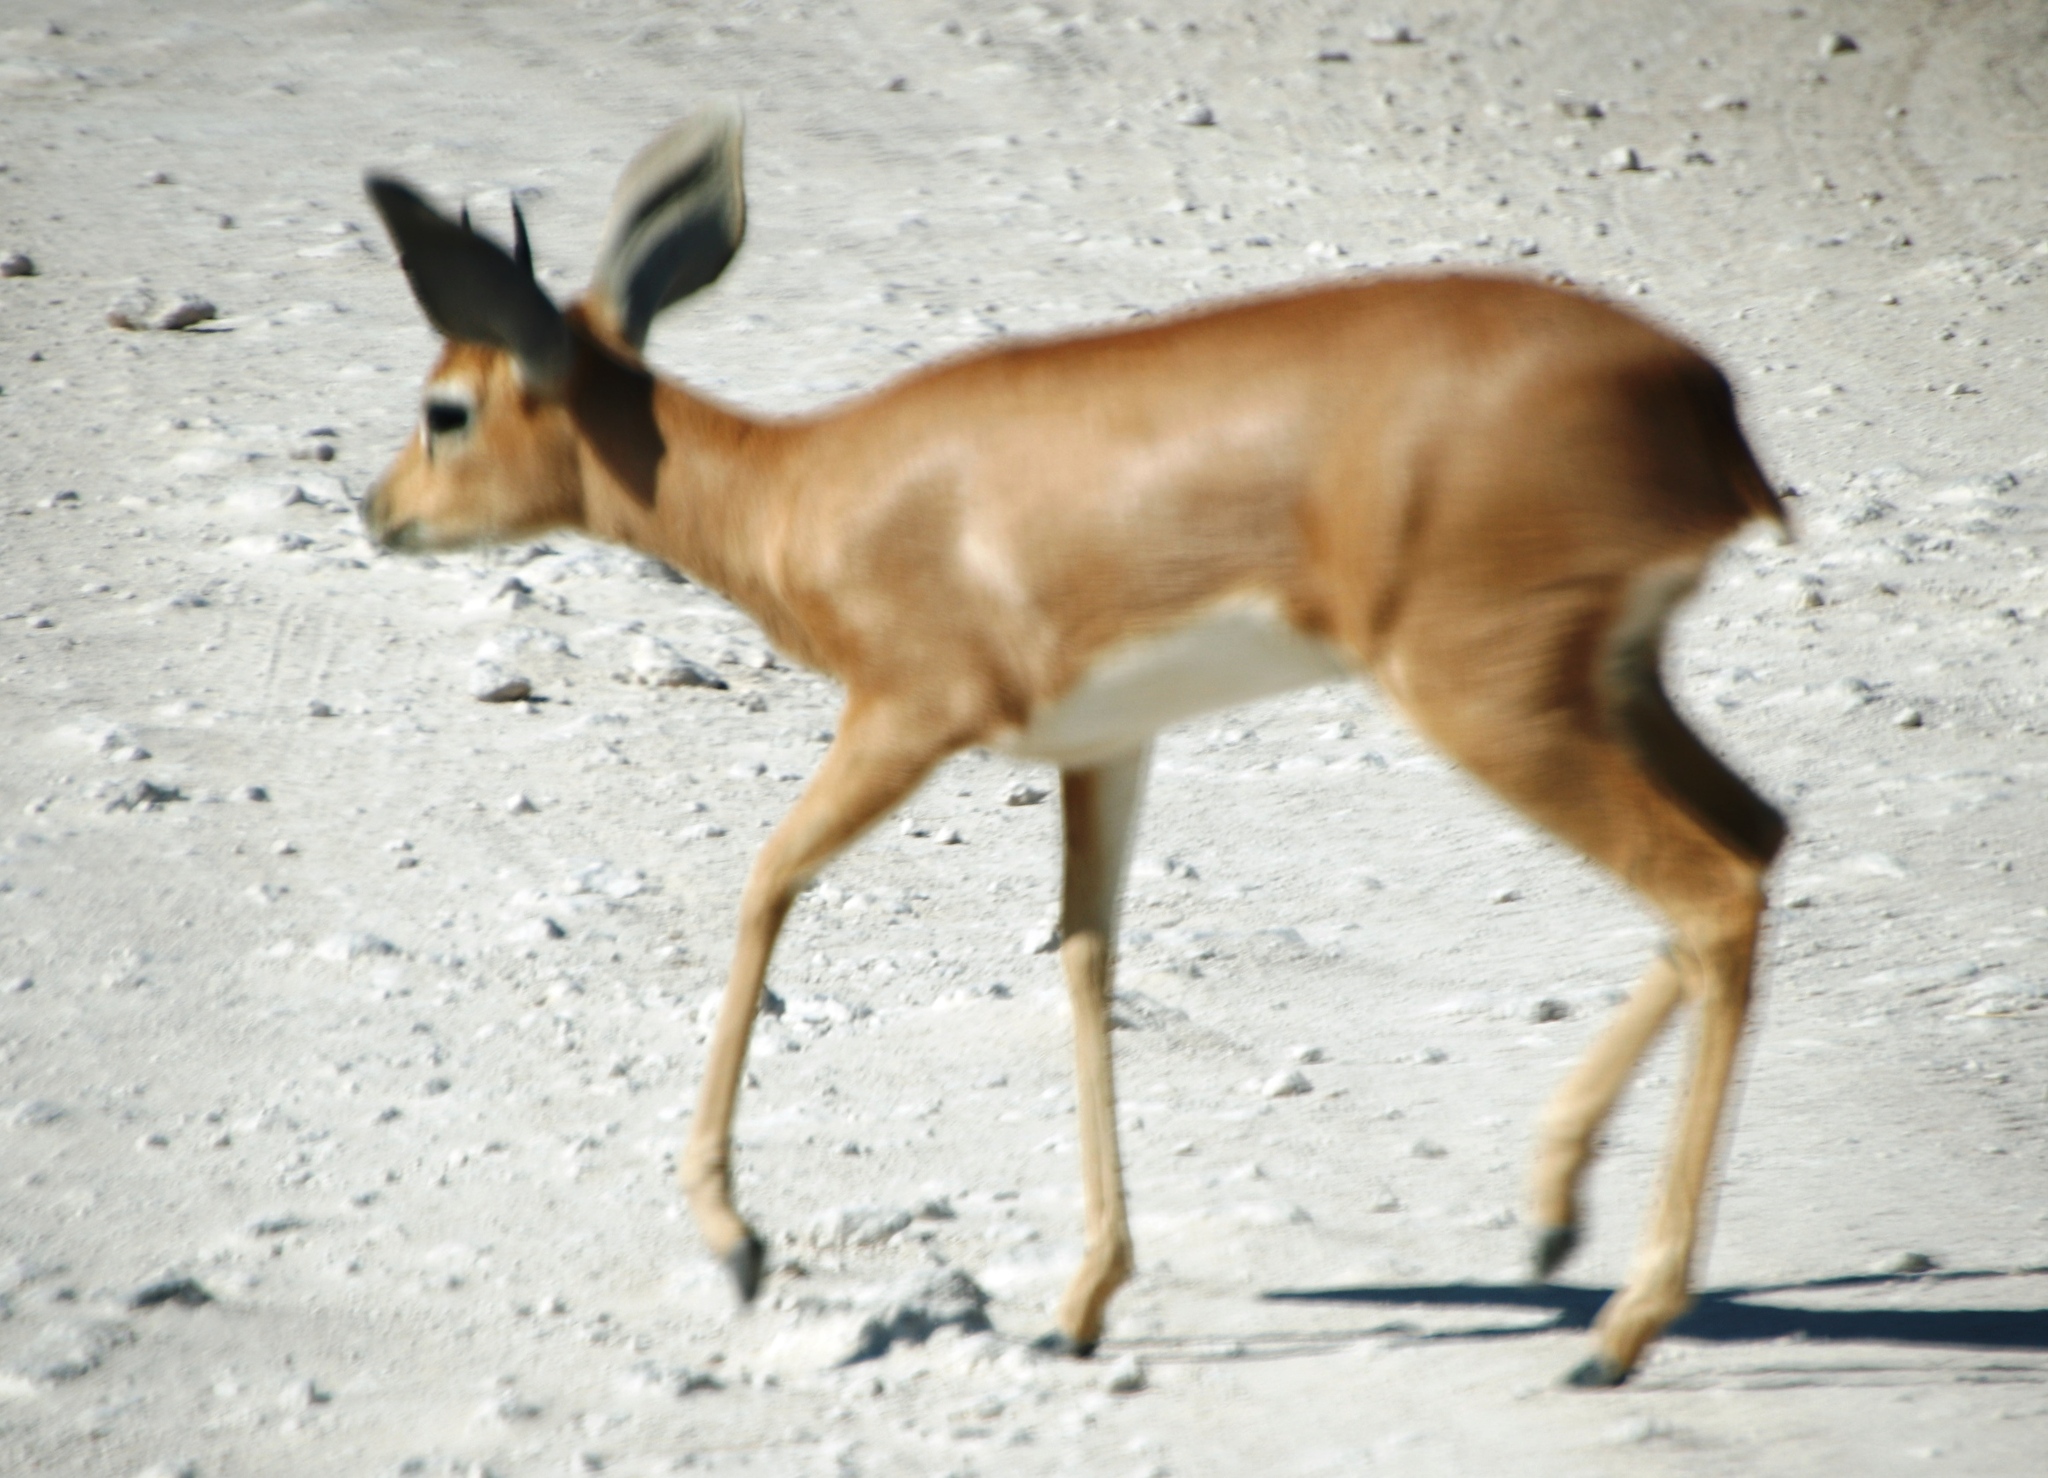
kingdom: Animalia
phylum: Chordata
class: Mammalia
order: Artiodactyla
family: Bovidae
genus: Raphicerus
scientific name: Raphicerus campestris
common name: Steenbok
